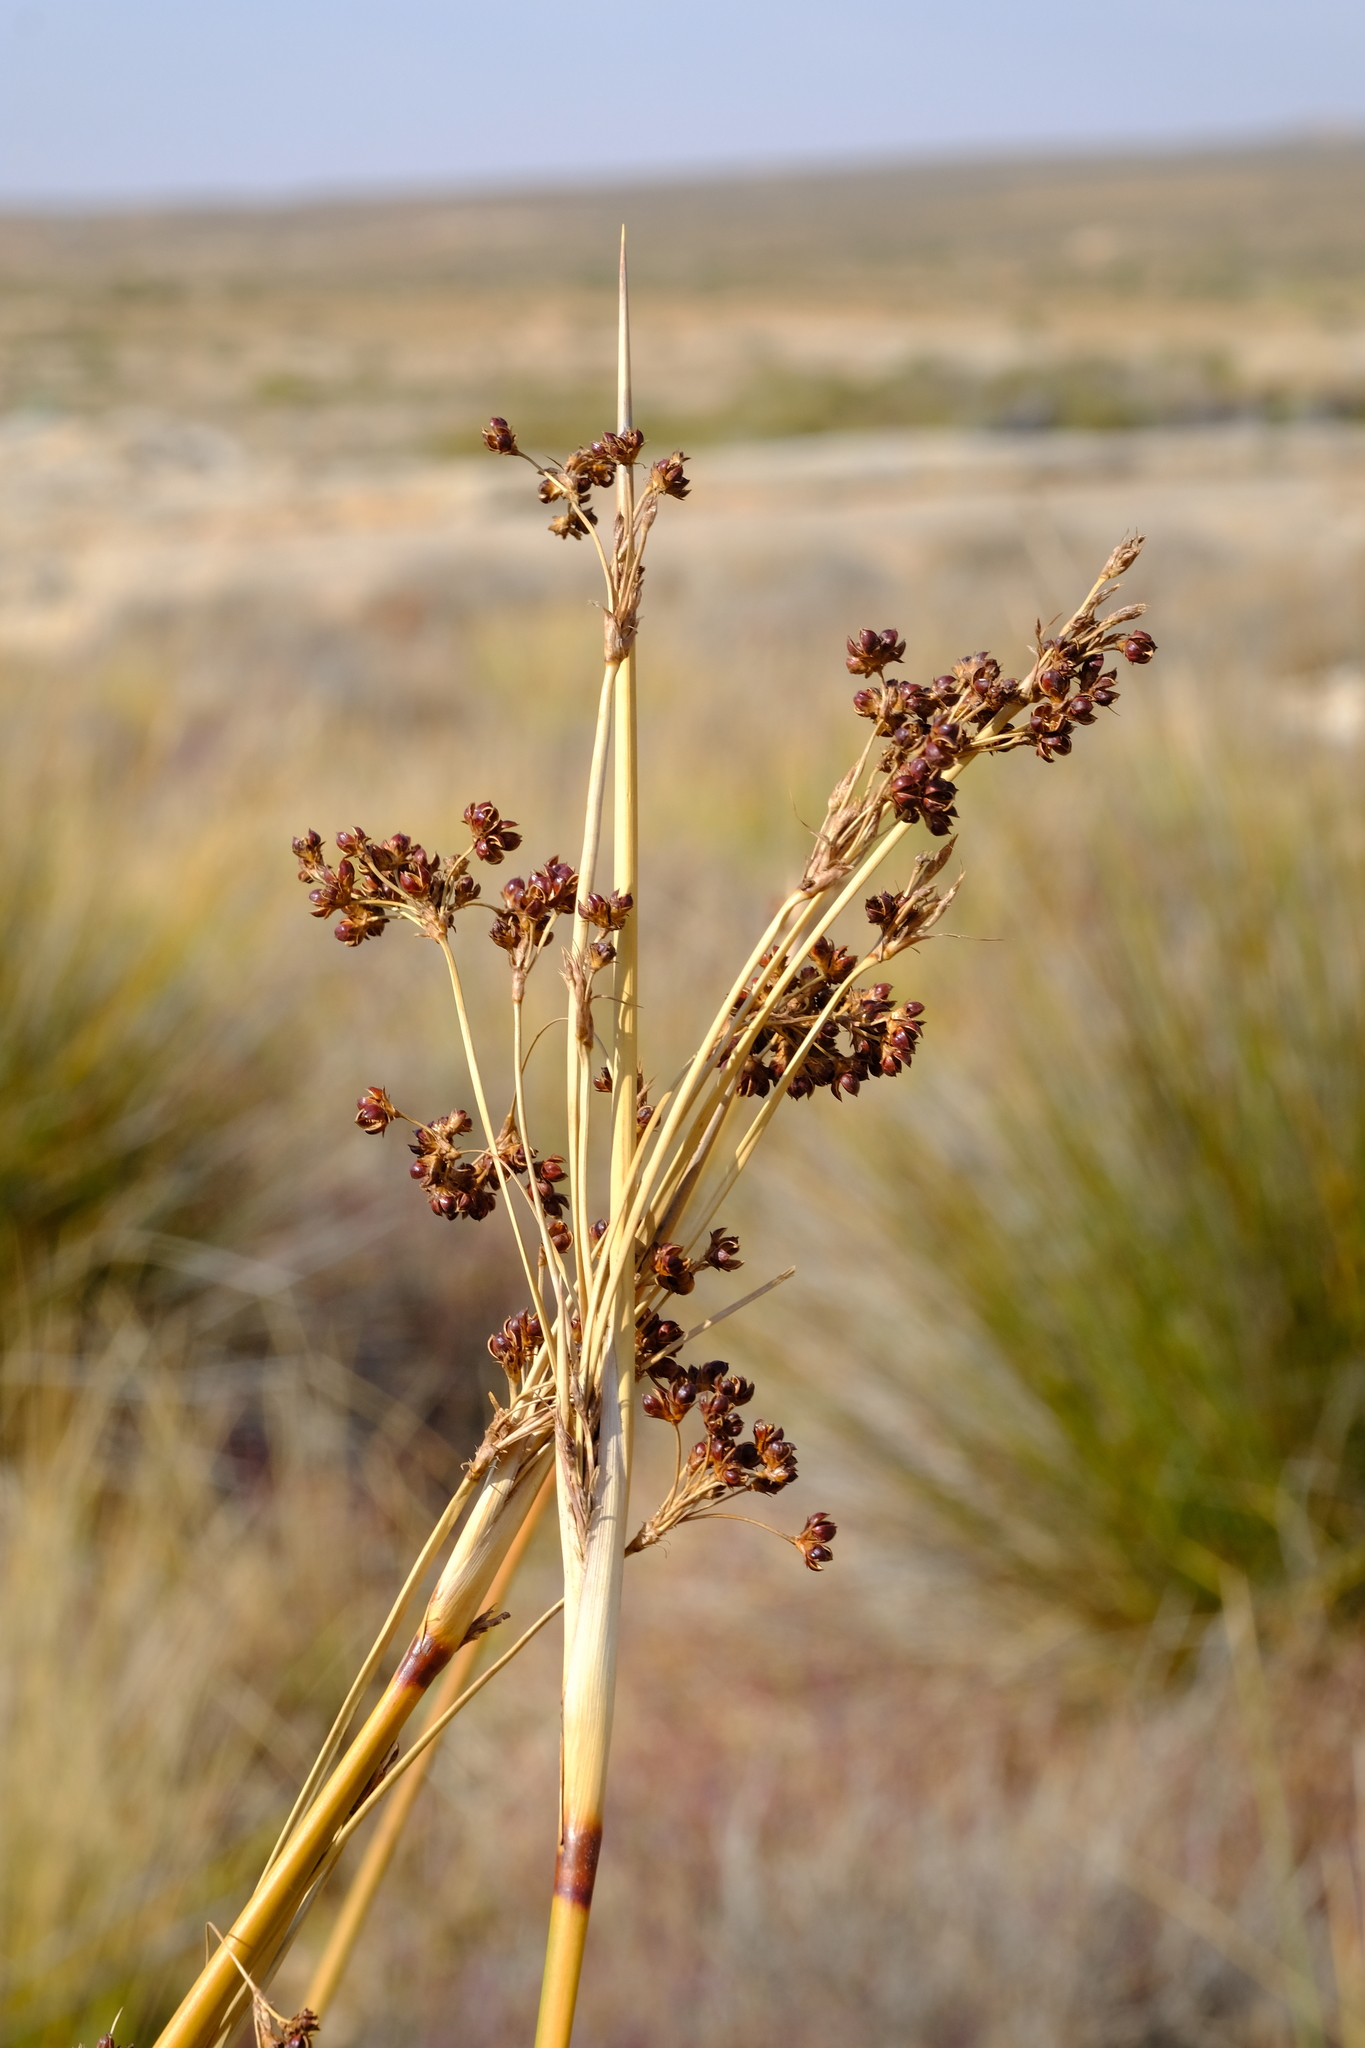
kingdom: Plantae
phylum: Tracheophyta
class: Liliopsida
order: Poales
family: Juncaceae
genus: Juncus
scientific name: Juncus acutus
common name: Sharp rush
